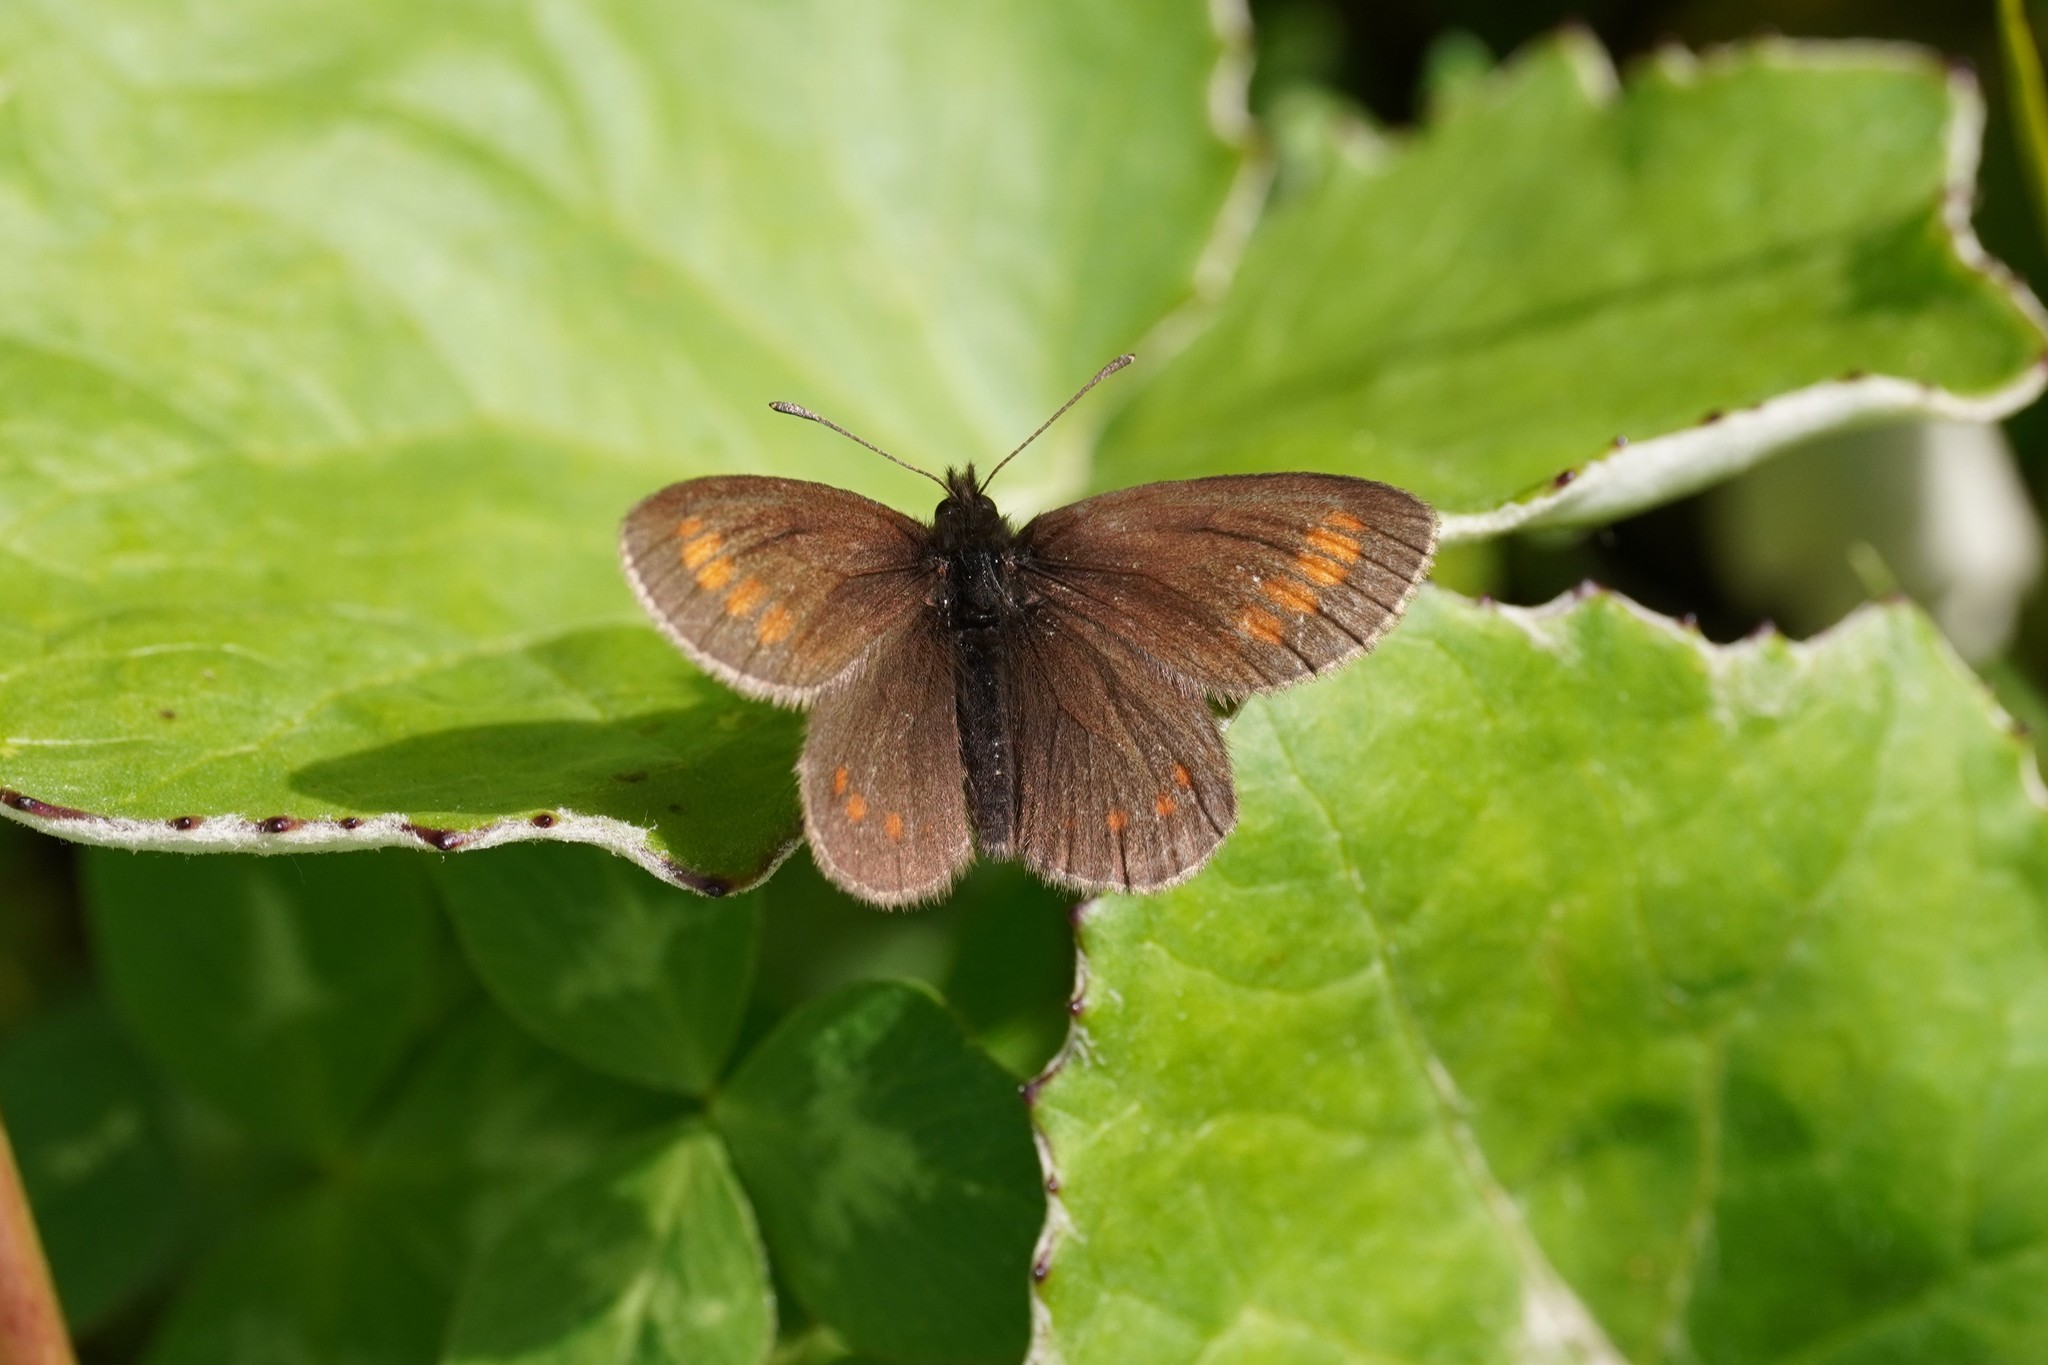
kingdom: Animalia
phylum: Arthropoda
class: Insecta
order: Lepidoptera
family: Nymphalidae
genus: Erebia
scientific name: Erebia pharte
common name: Blind ringlet
